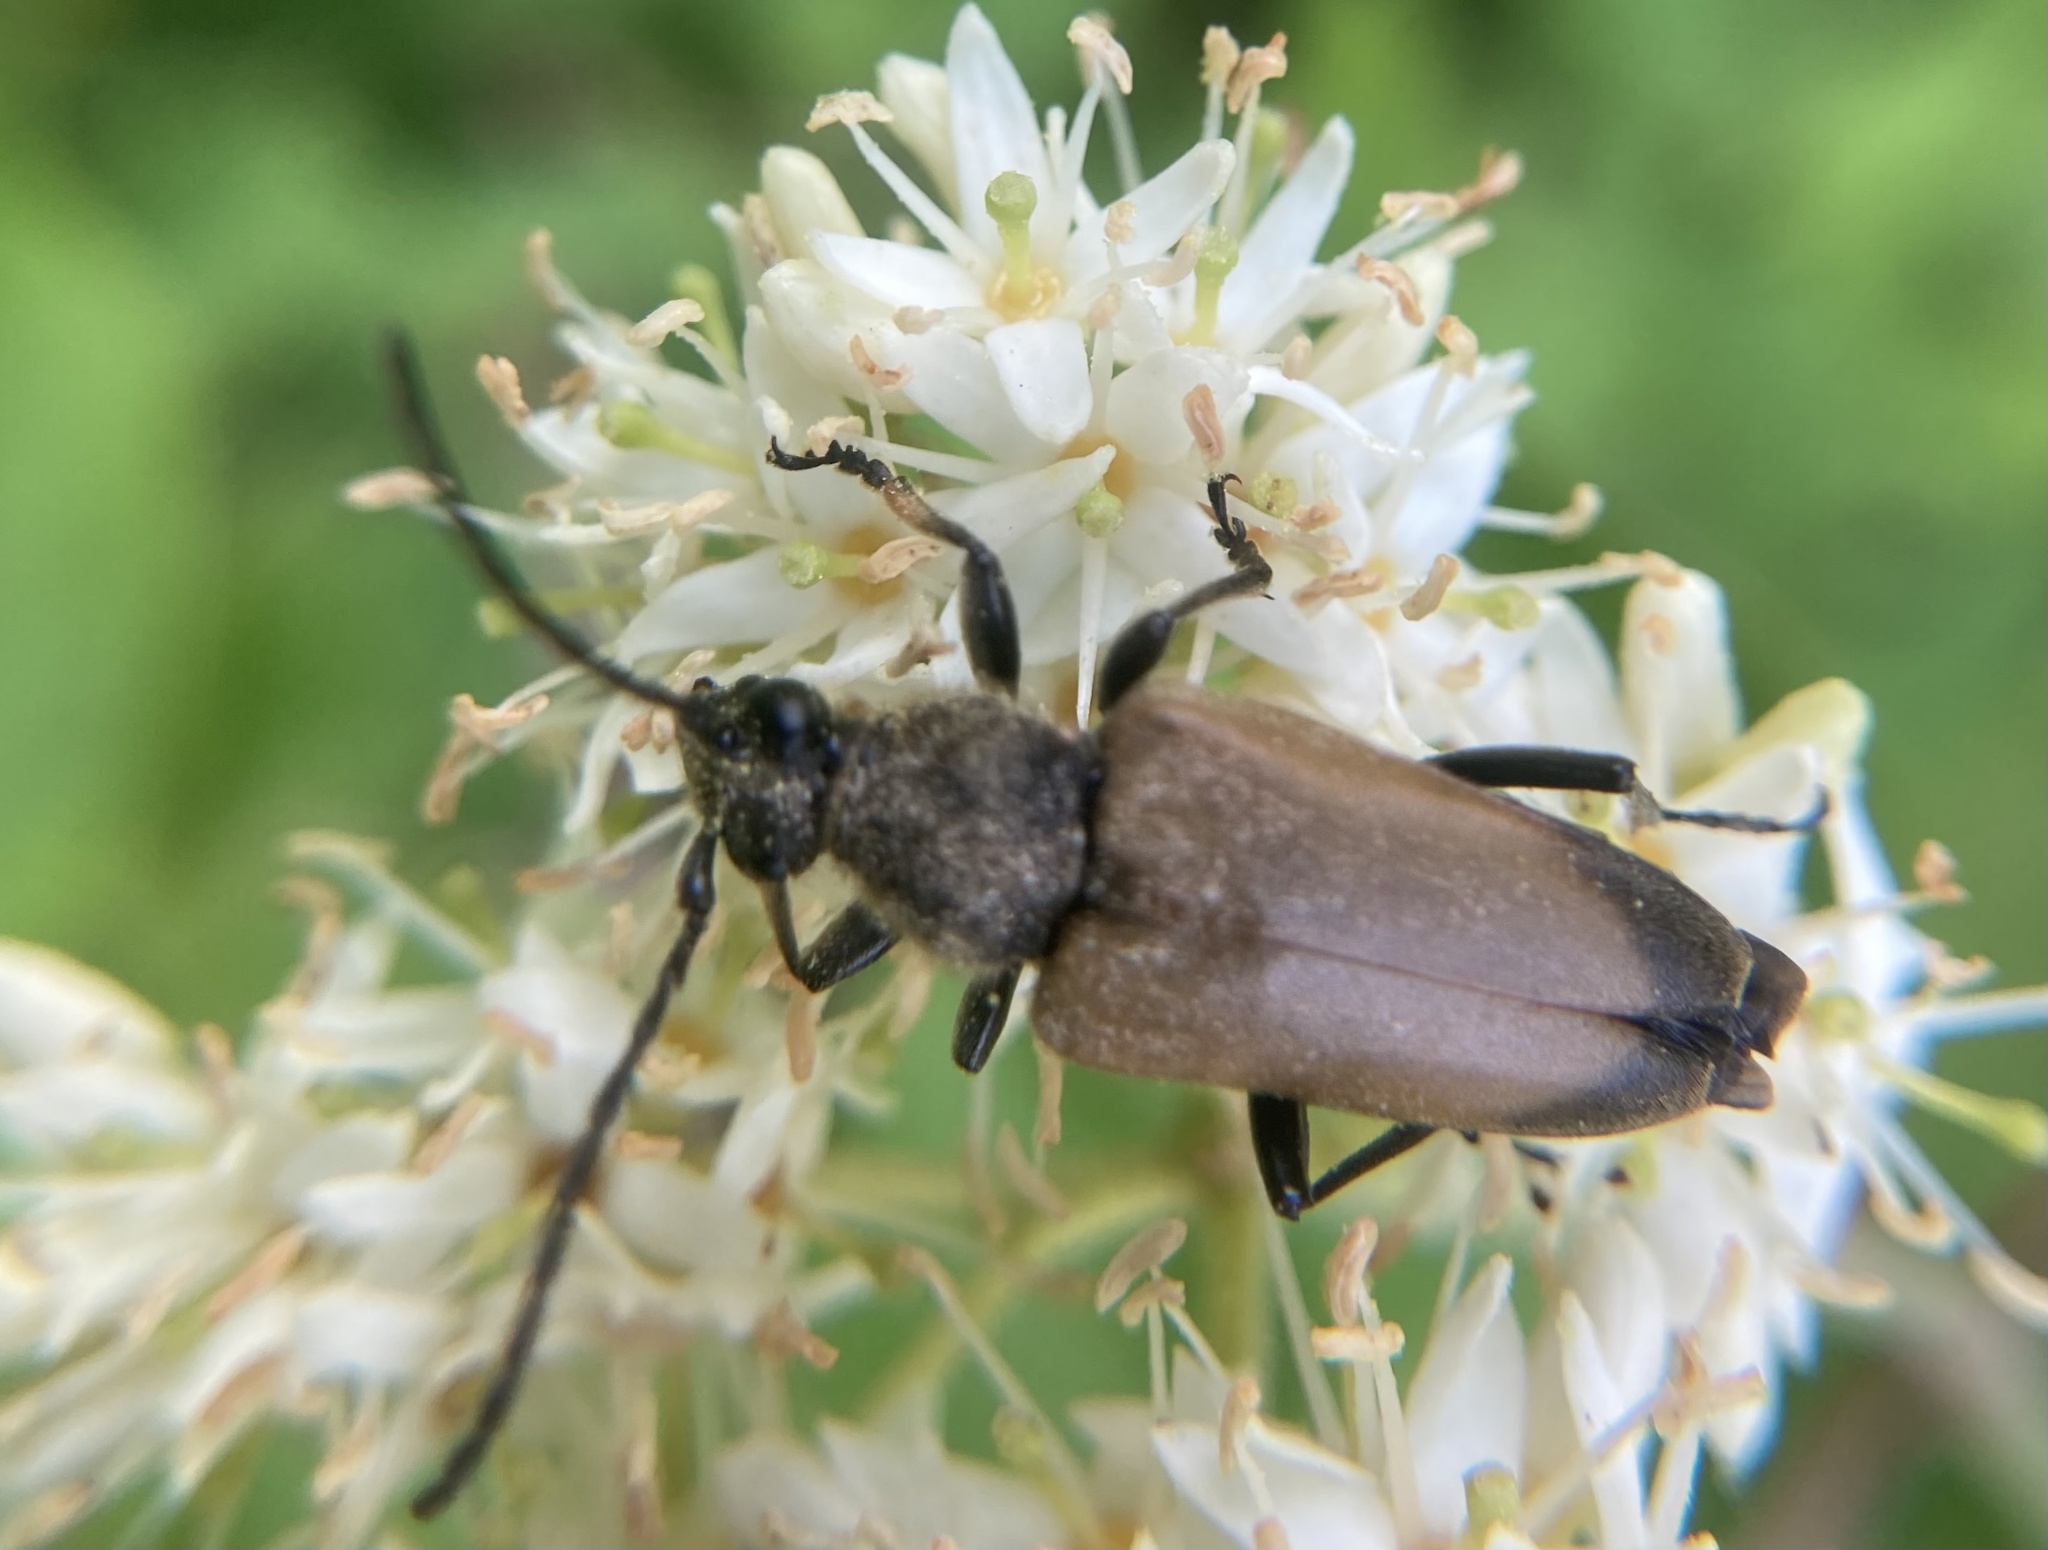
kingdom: Animalia
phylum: Arthropoda
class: Insecta
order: Coleoptera
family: Cerambycidae
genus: Trigonarthris
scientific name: Trigonarthris proxima
